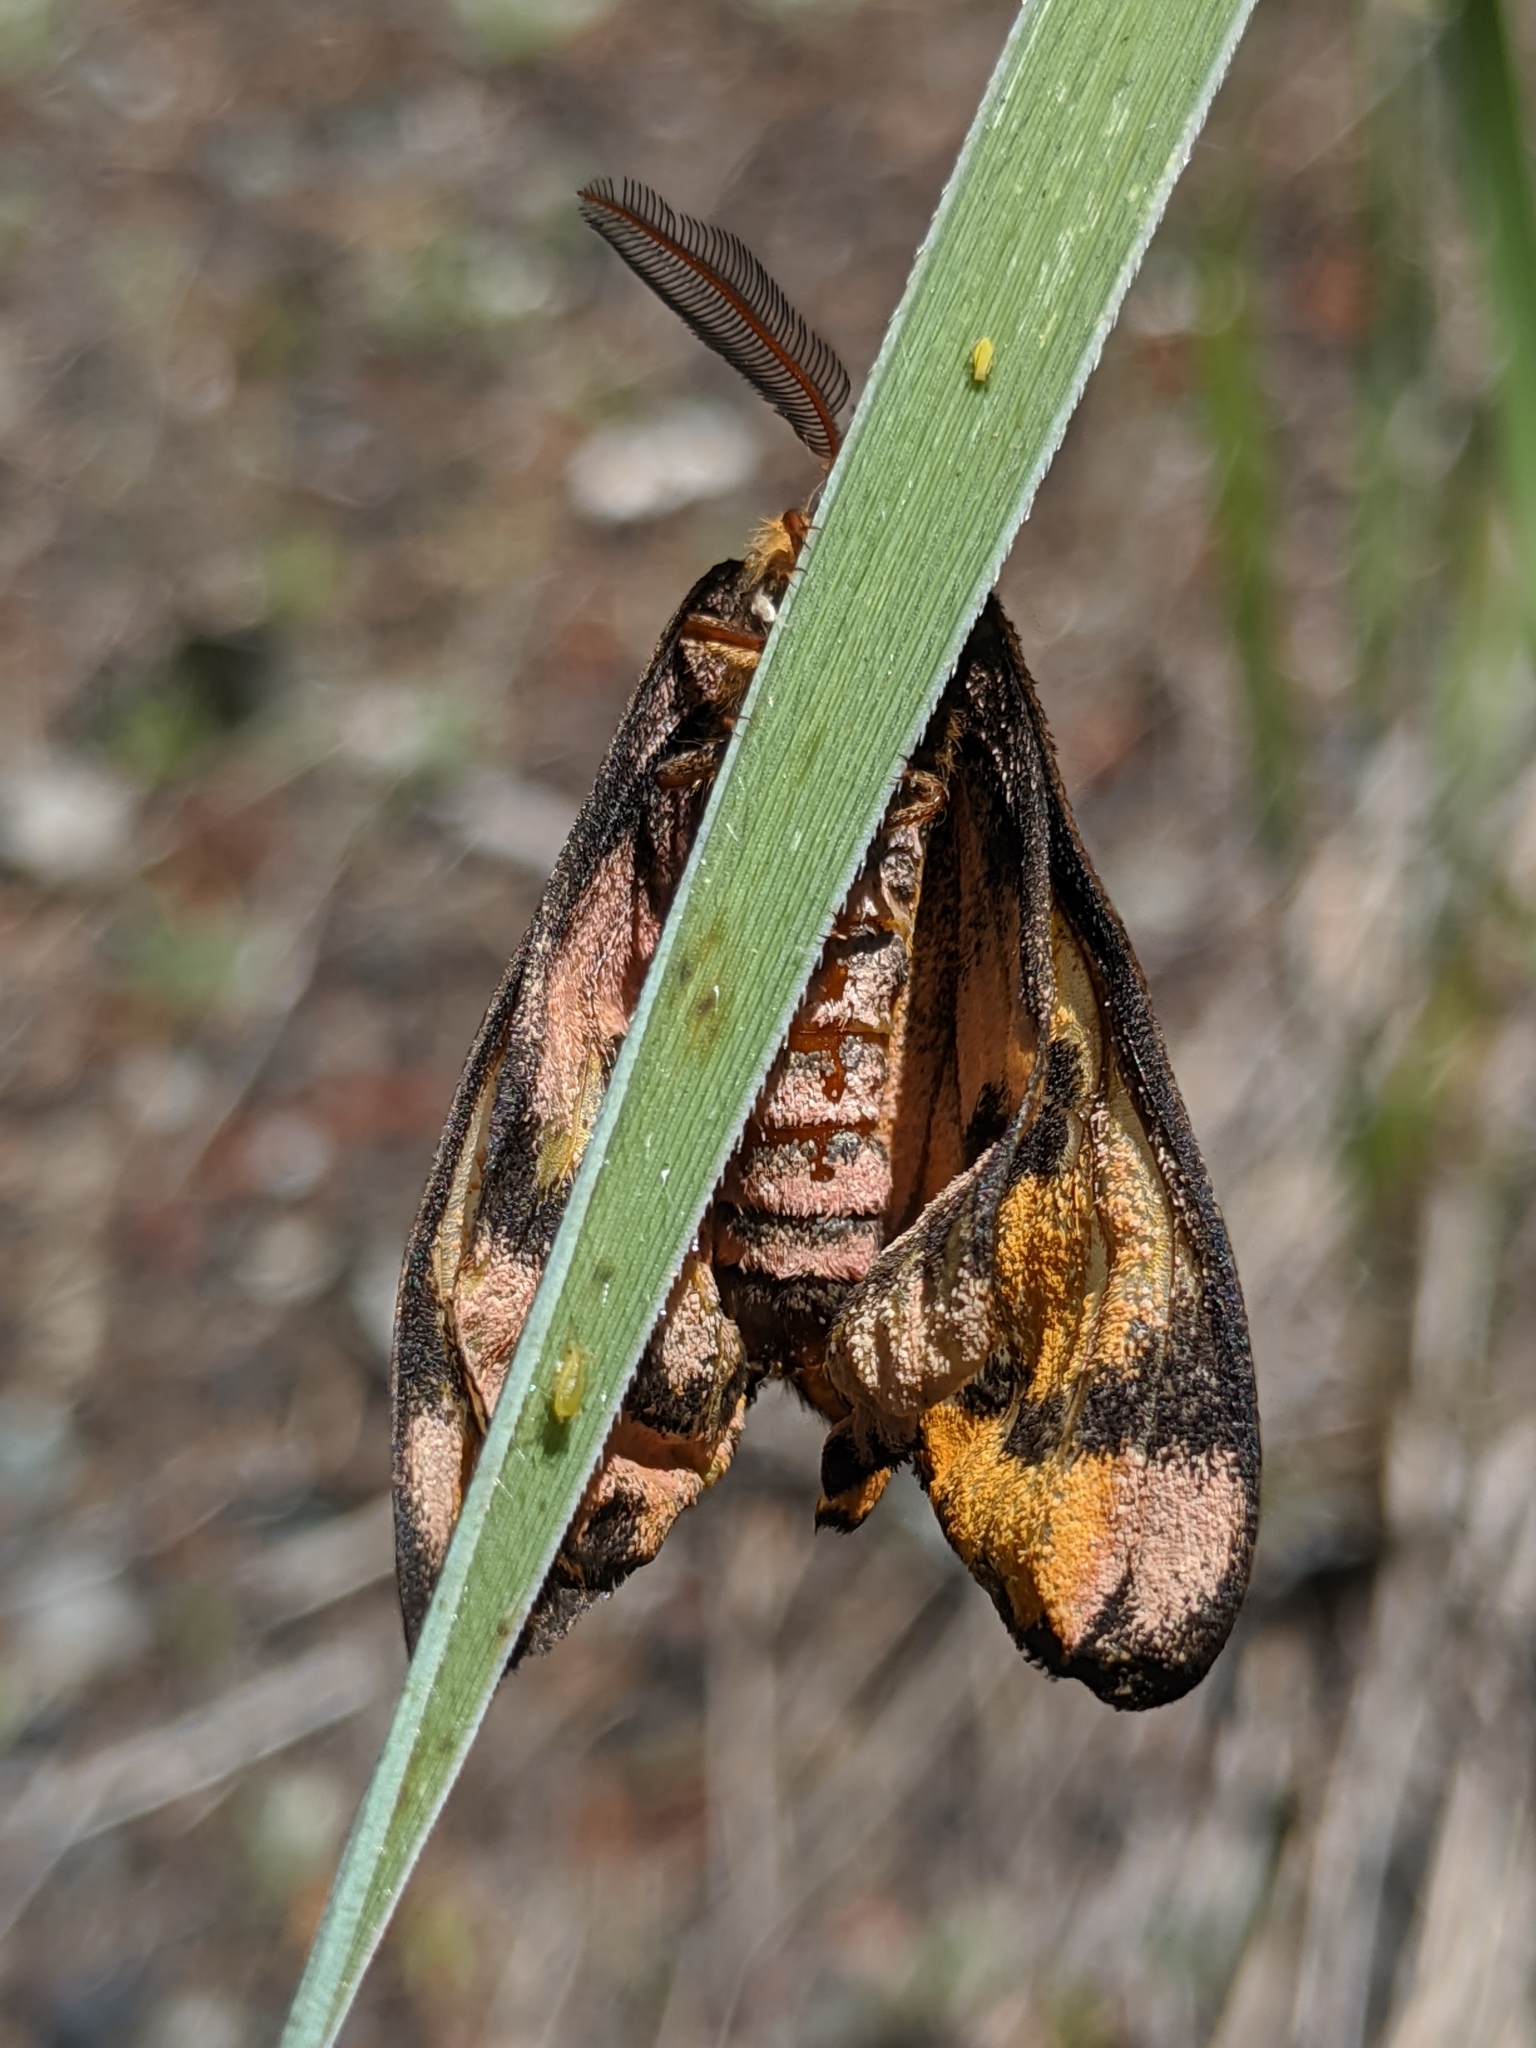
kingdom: Animalia
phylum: Arthropoda
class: Insecta
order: Lepidoptera
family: Saturniidae
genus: Hemileuca
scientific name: Hemileuca eglanterina
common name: Western sheepmoth
